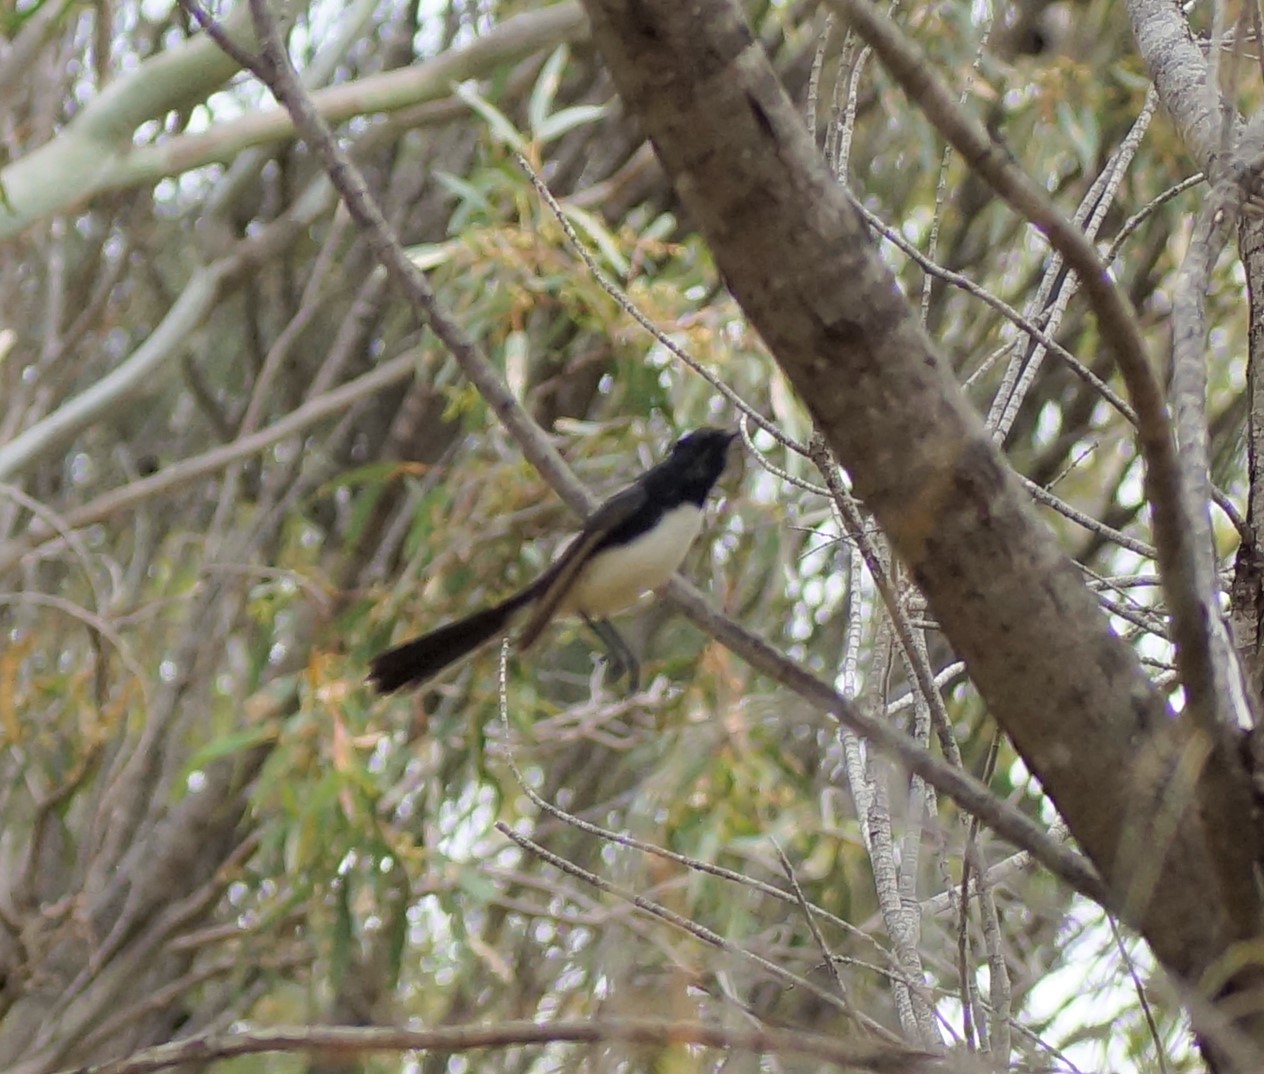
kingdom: Animalia
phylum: Chordata
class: Aves
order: Passeriformes
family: Rhipiduridae
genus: Rhipidura
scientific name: Rhipidura leucophrys
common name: Willie wagtail
